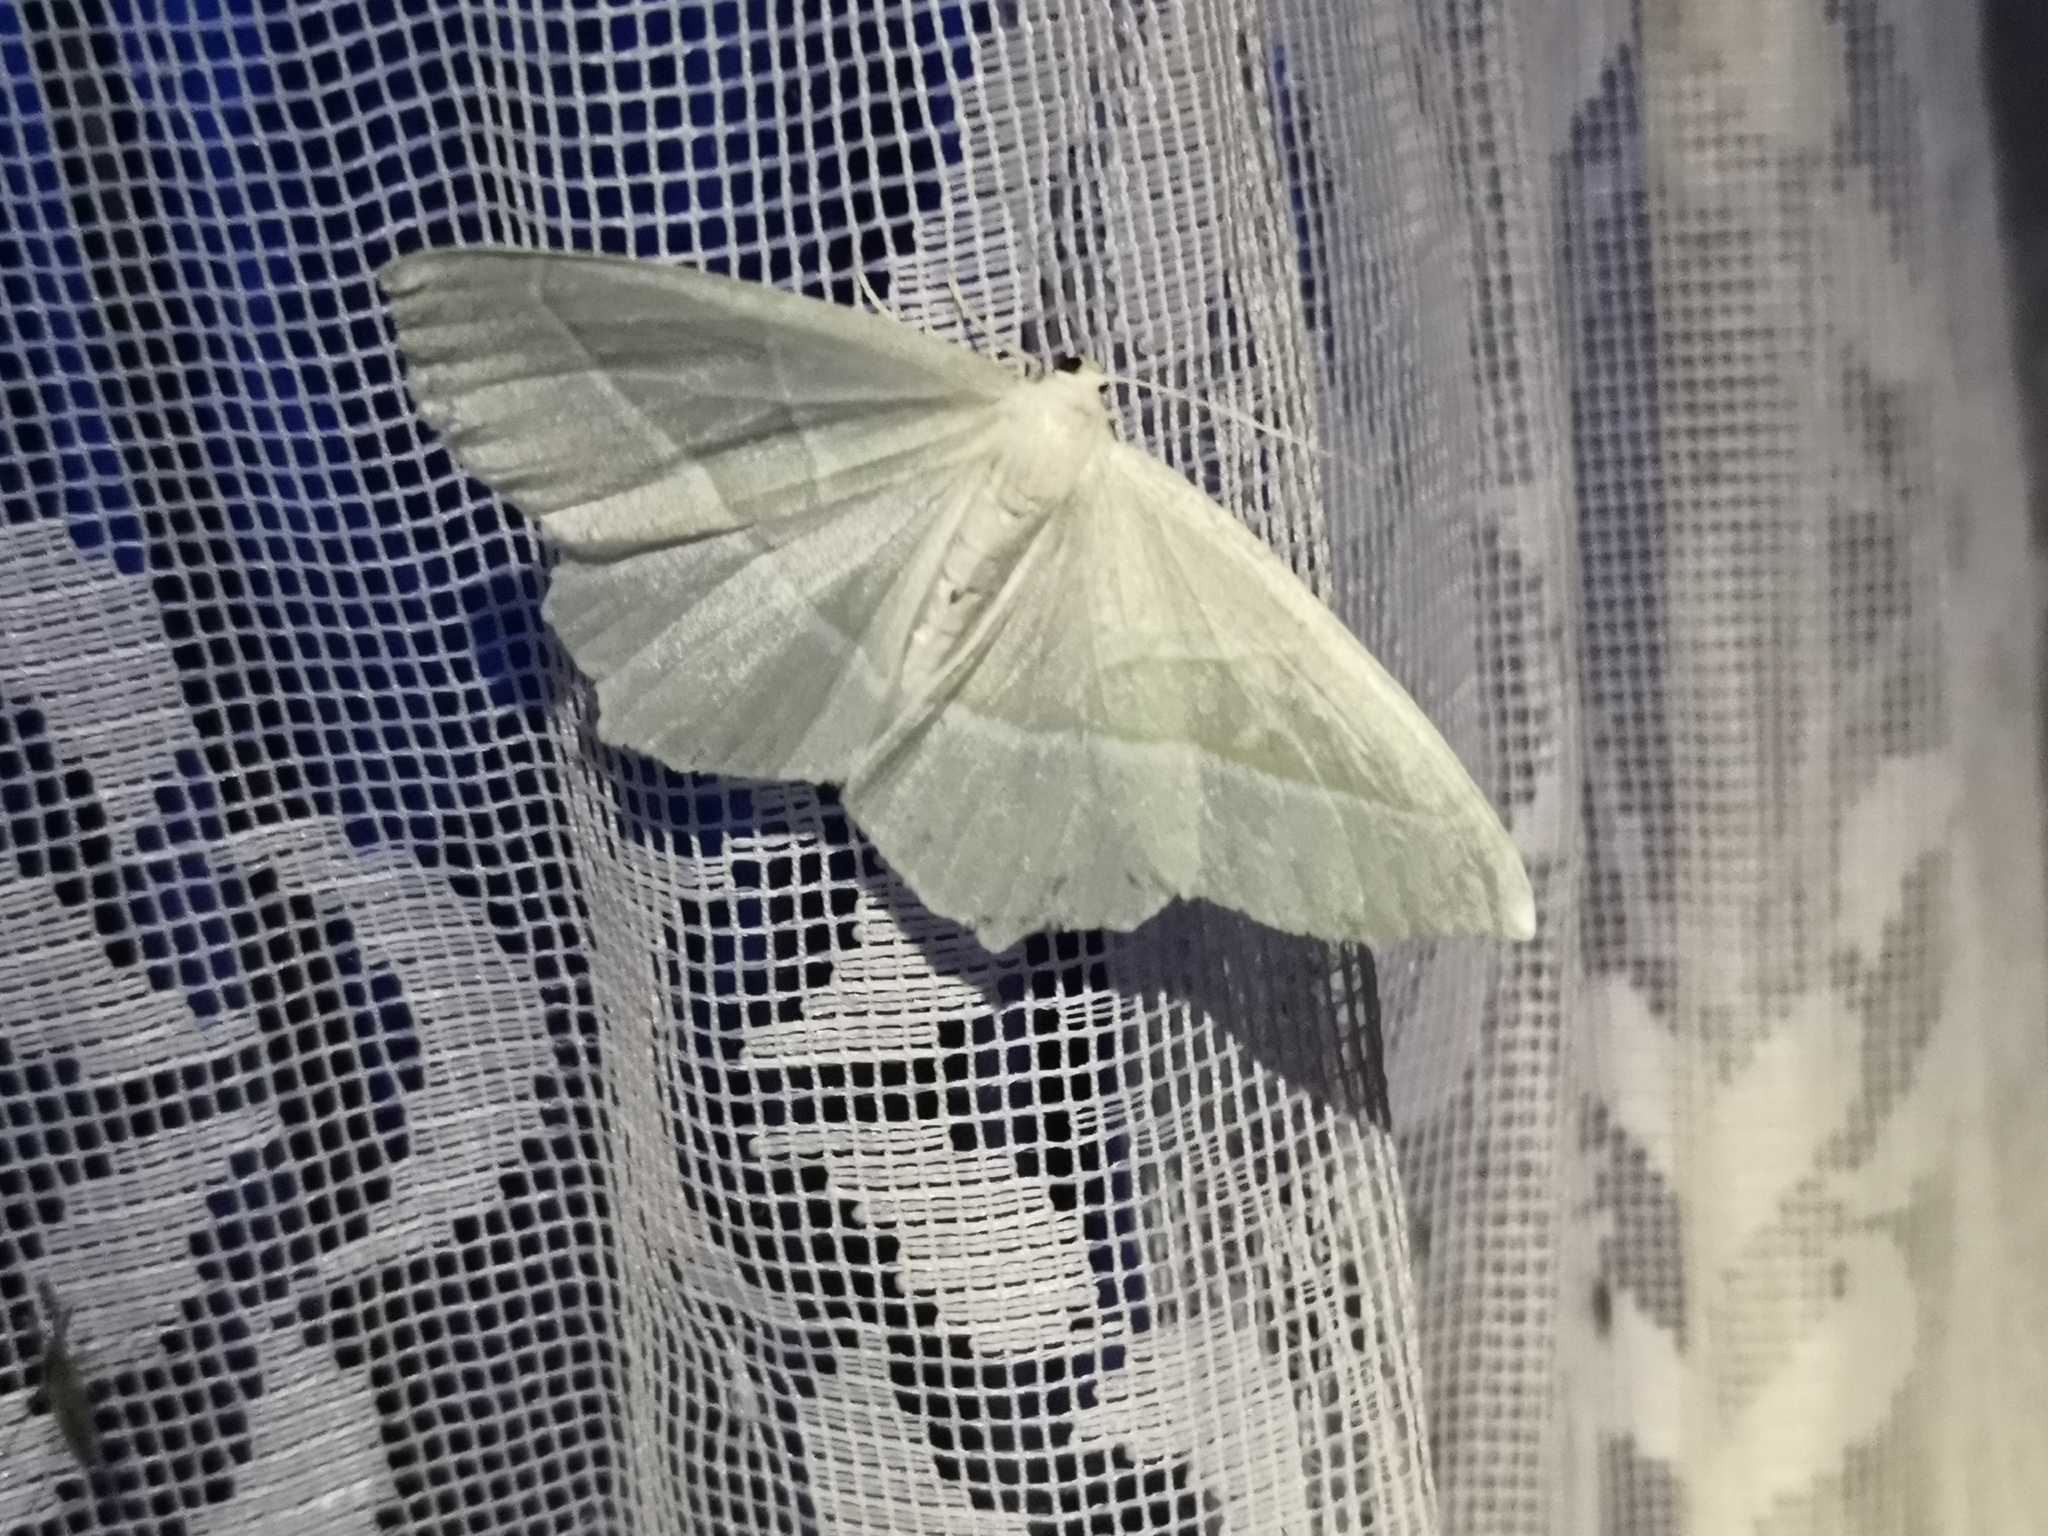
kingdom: Animalia
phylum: Arthropoda
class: Insecta
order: Lepidoptera
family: Geometridae
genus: Campaea
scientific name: Campaea margaritaria
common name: Light emerald
